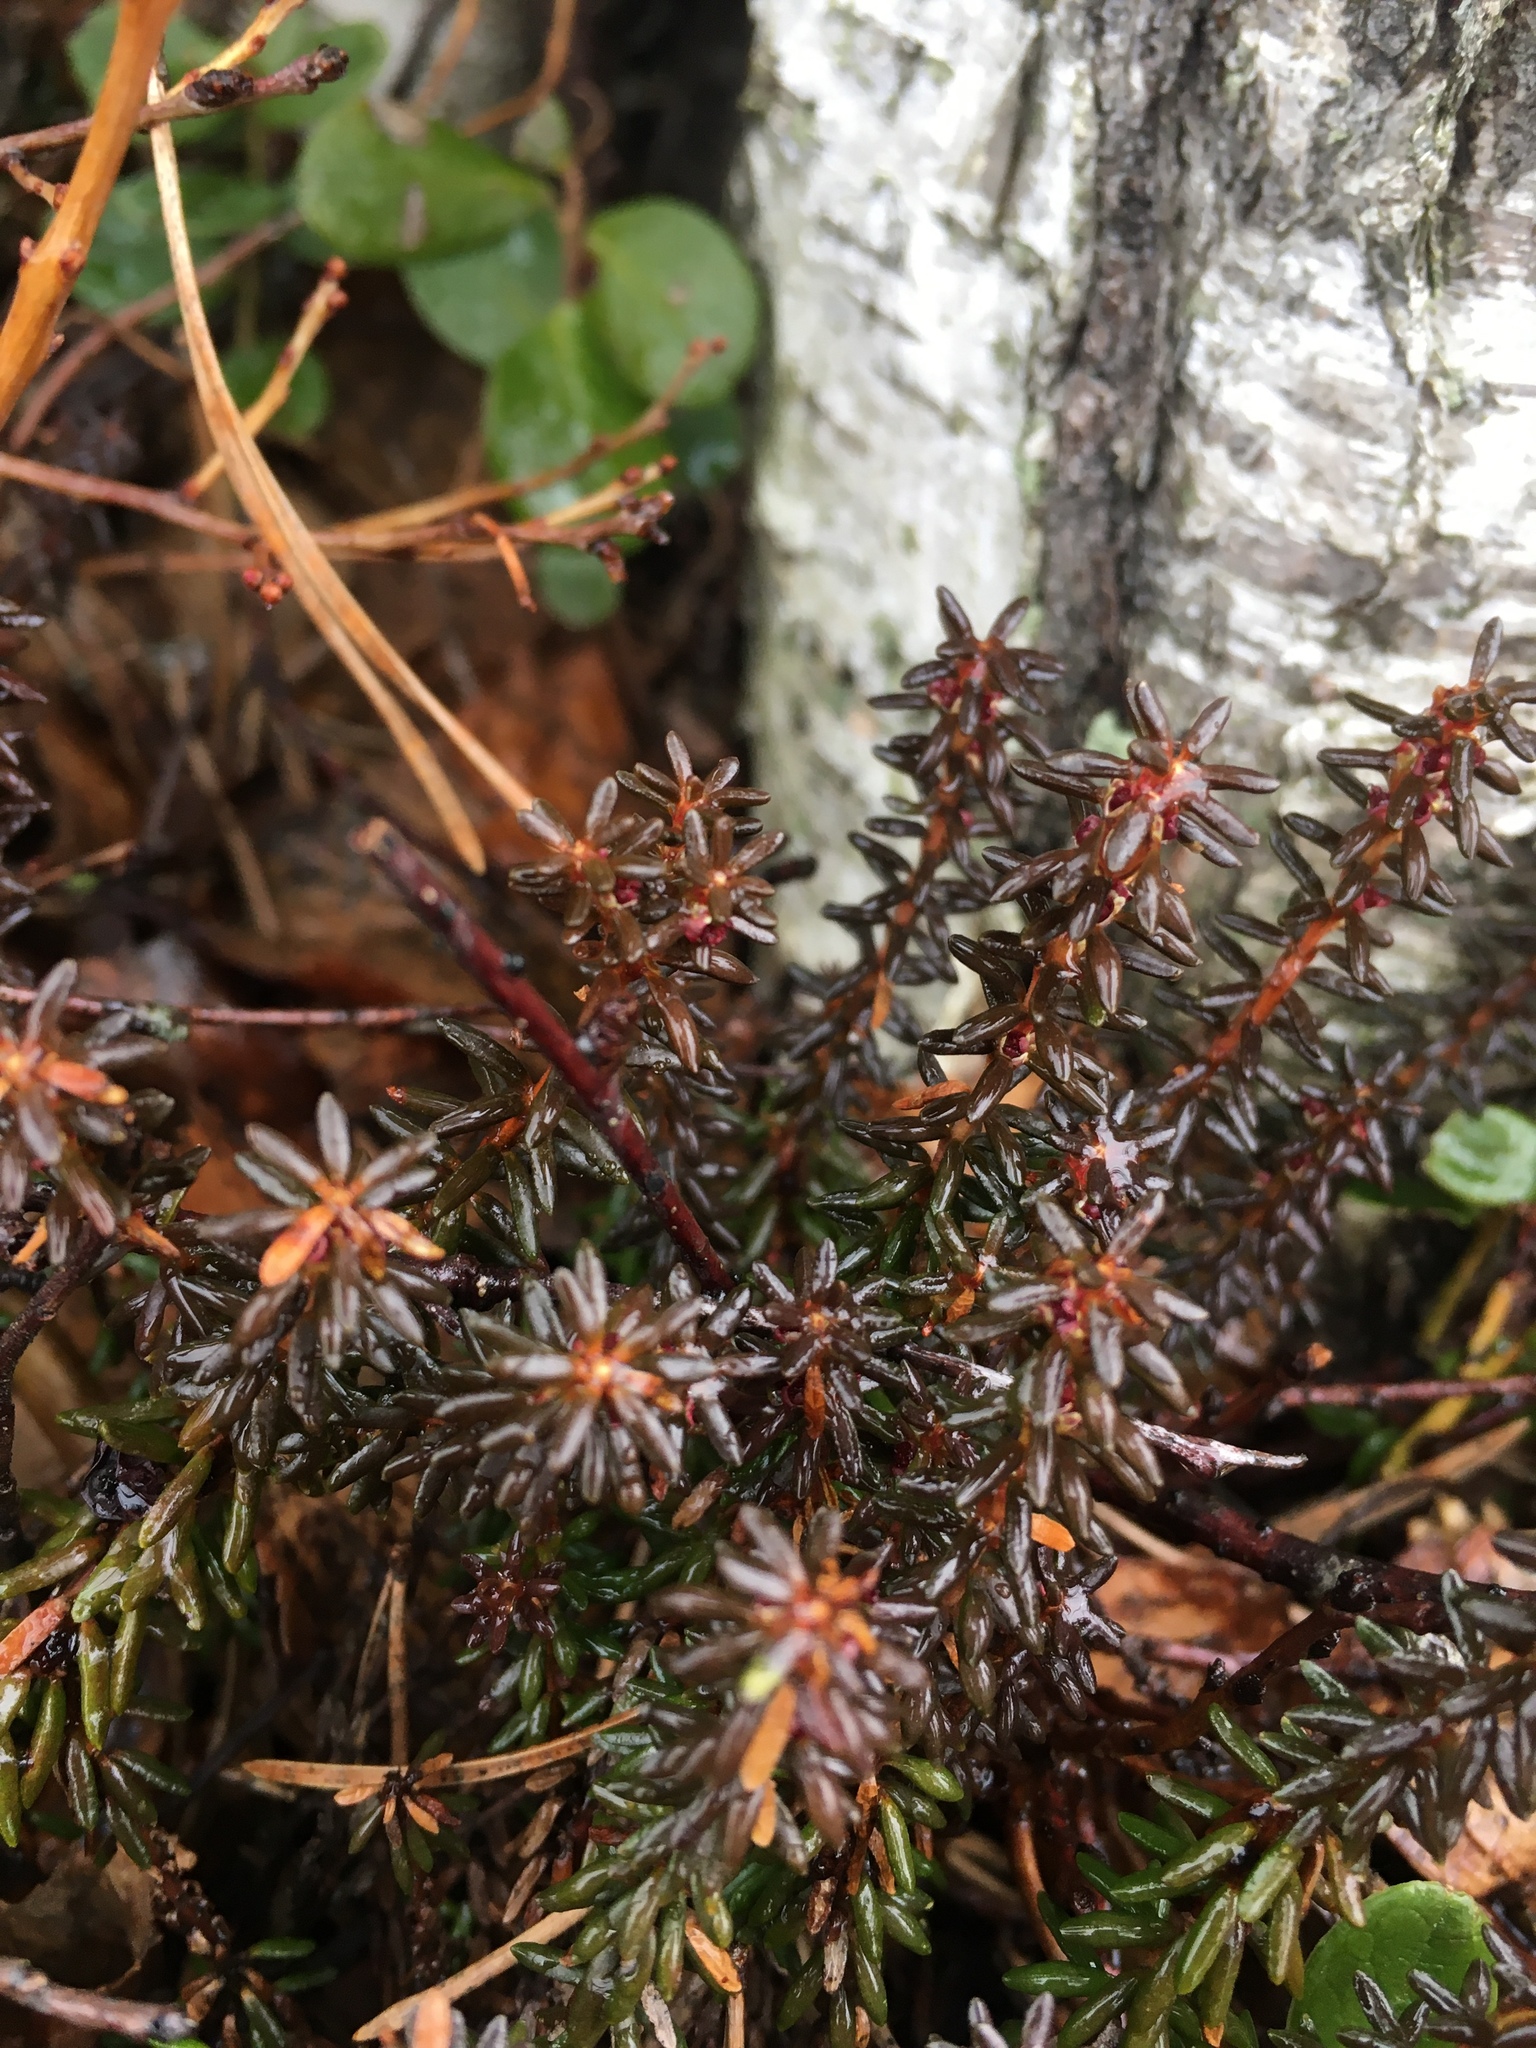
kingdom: Plantae
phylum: Tracheophyta
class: Magnoliopsida
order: Ericales
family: Ericaceae
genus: Empetrum
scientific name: Empetrum nigrum
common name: Black crowberry
